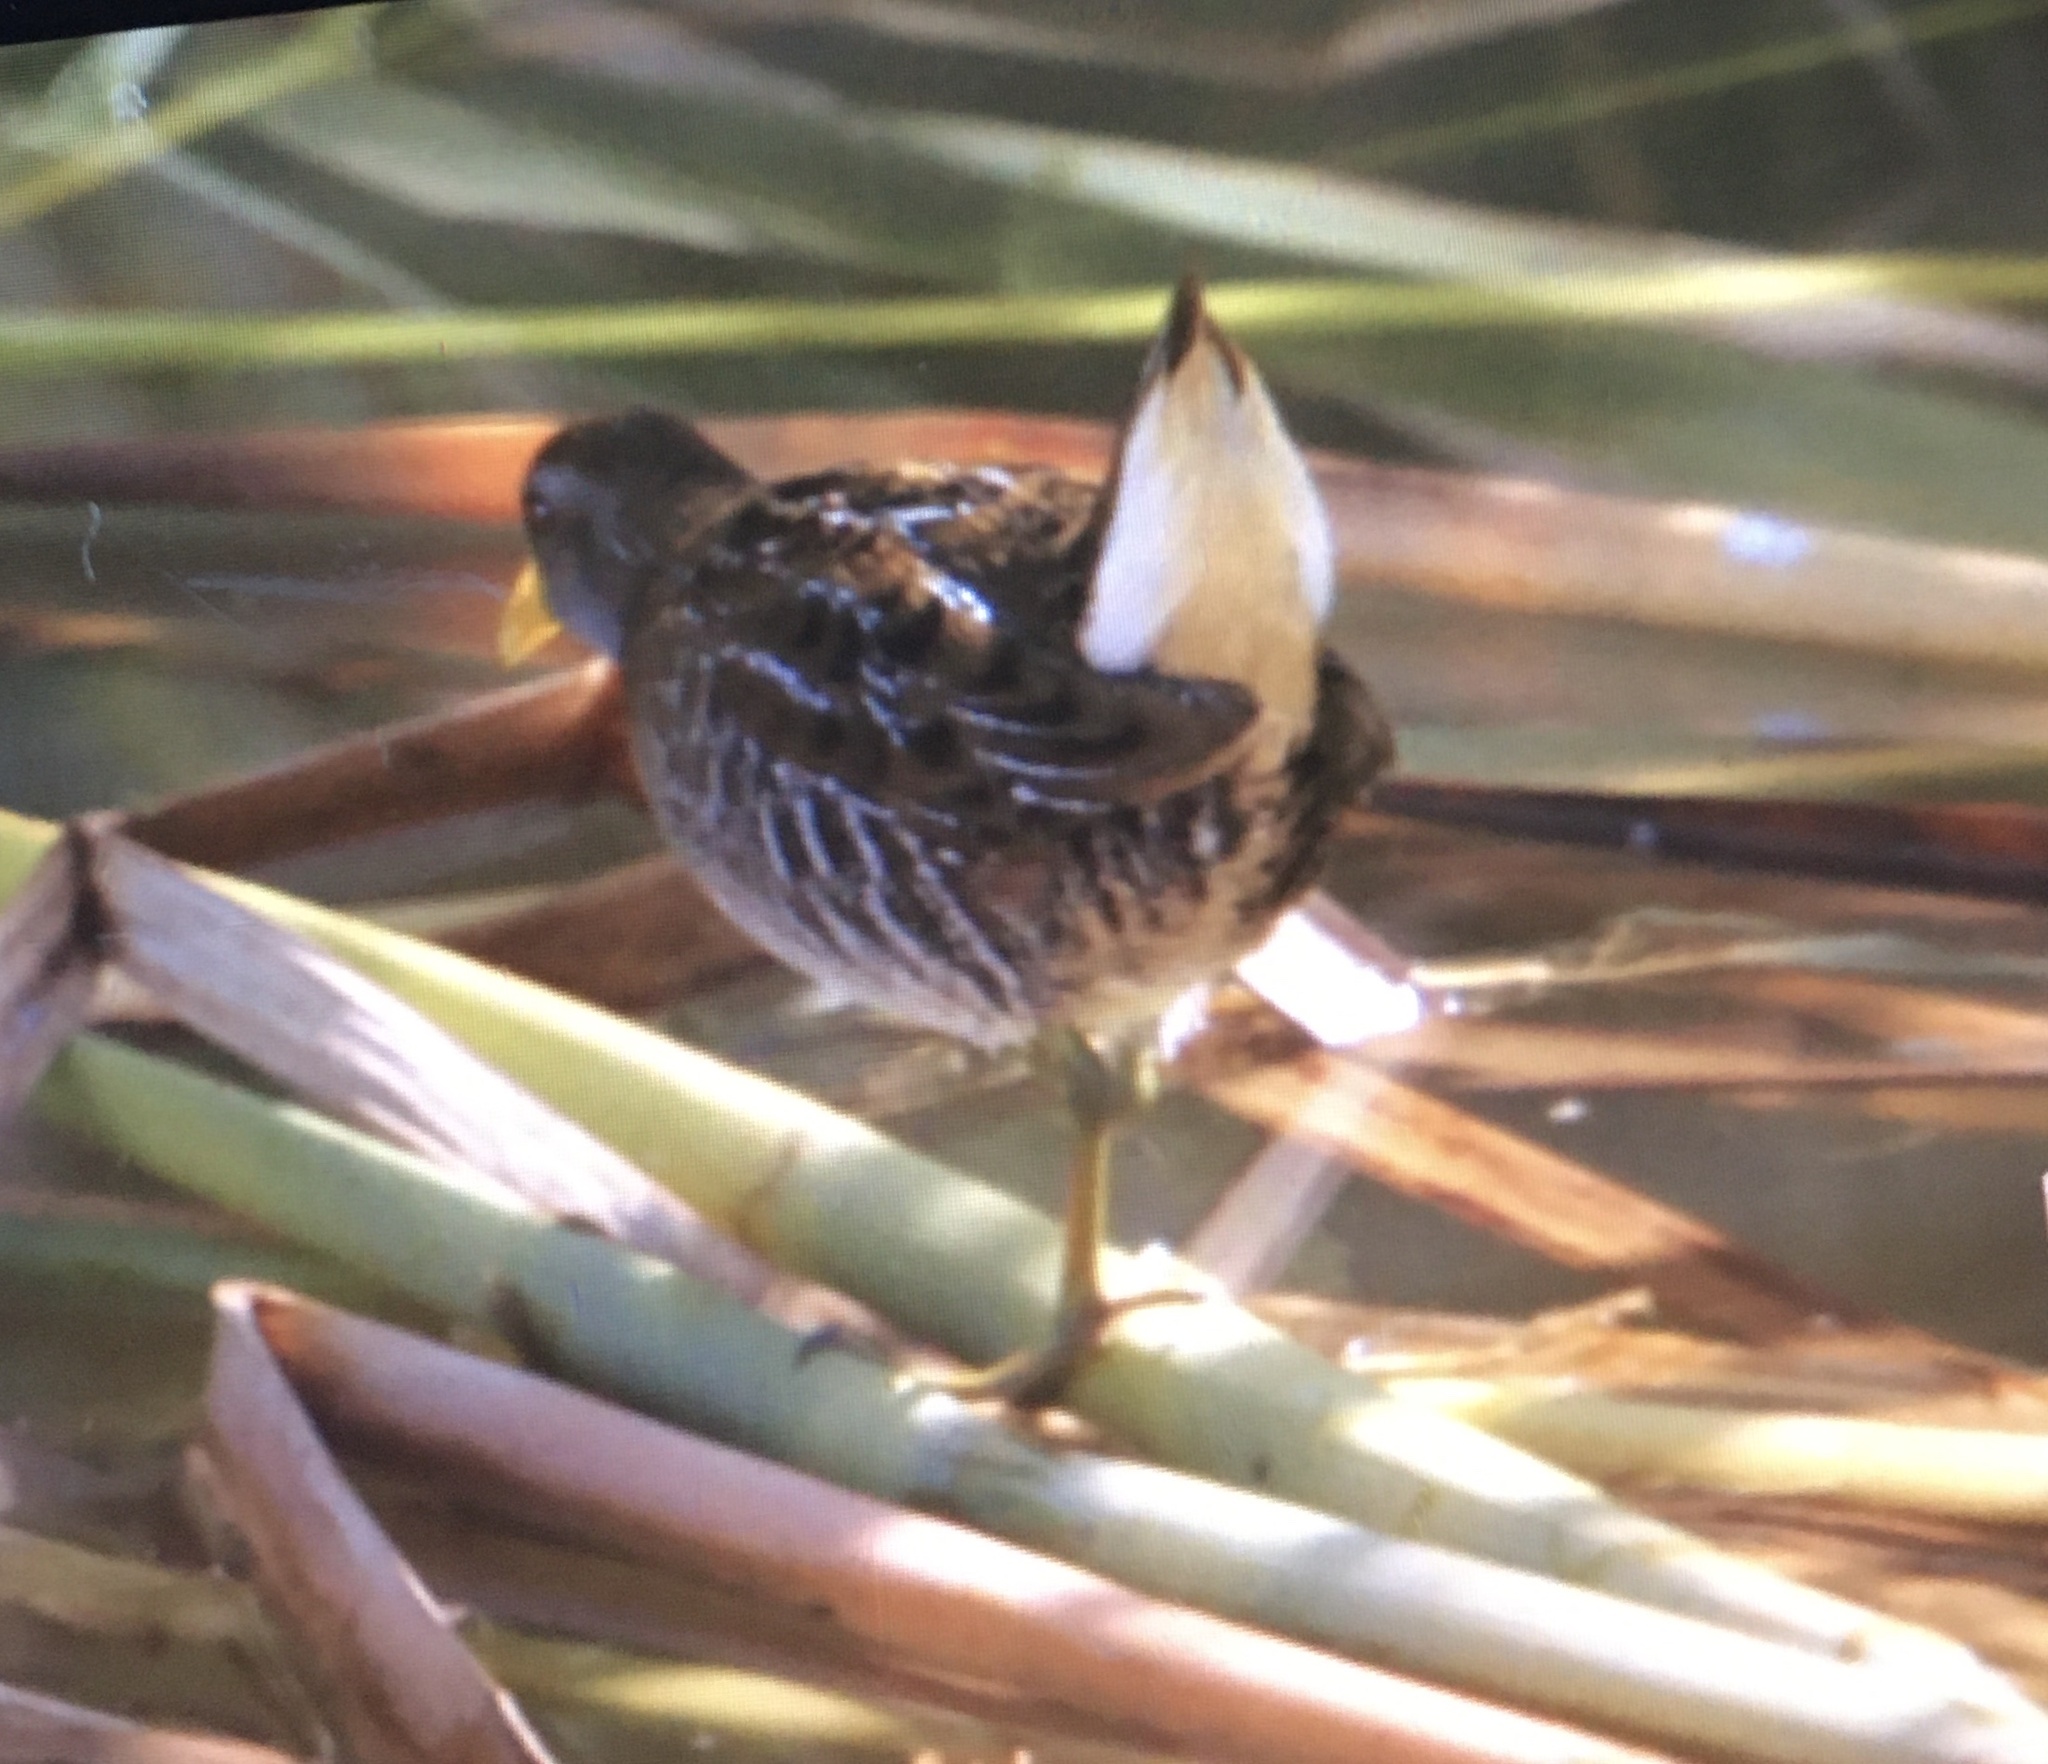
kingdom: Animalia
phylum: Chordata
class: Aves
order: Gruiformes
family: Rallidae
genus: Porzana
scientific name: Porzana carolina
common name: Sora
